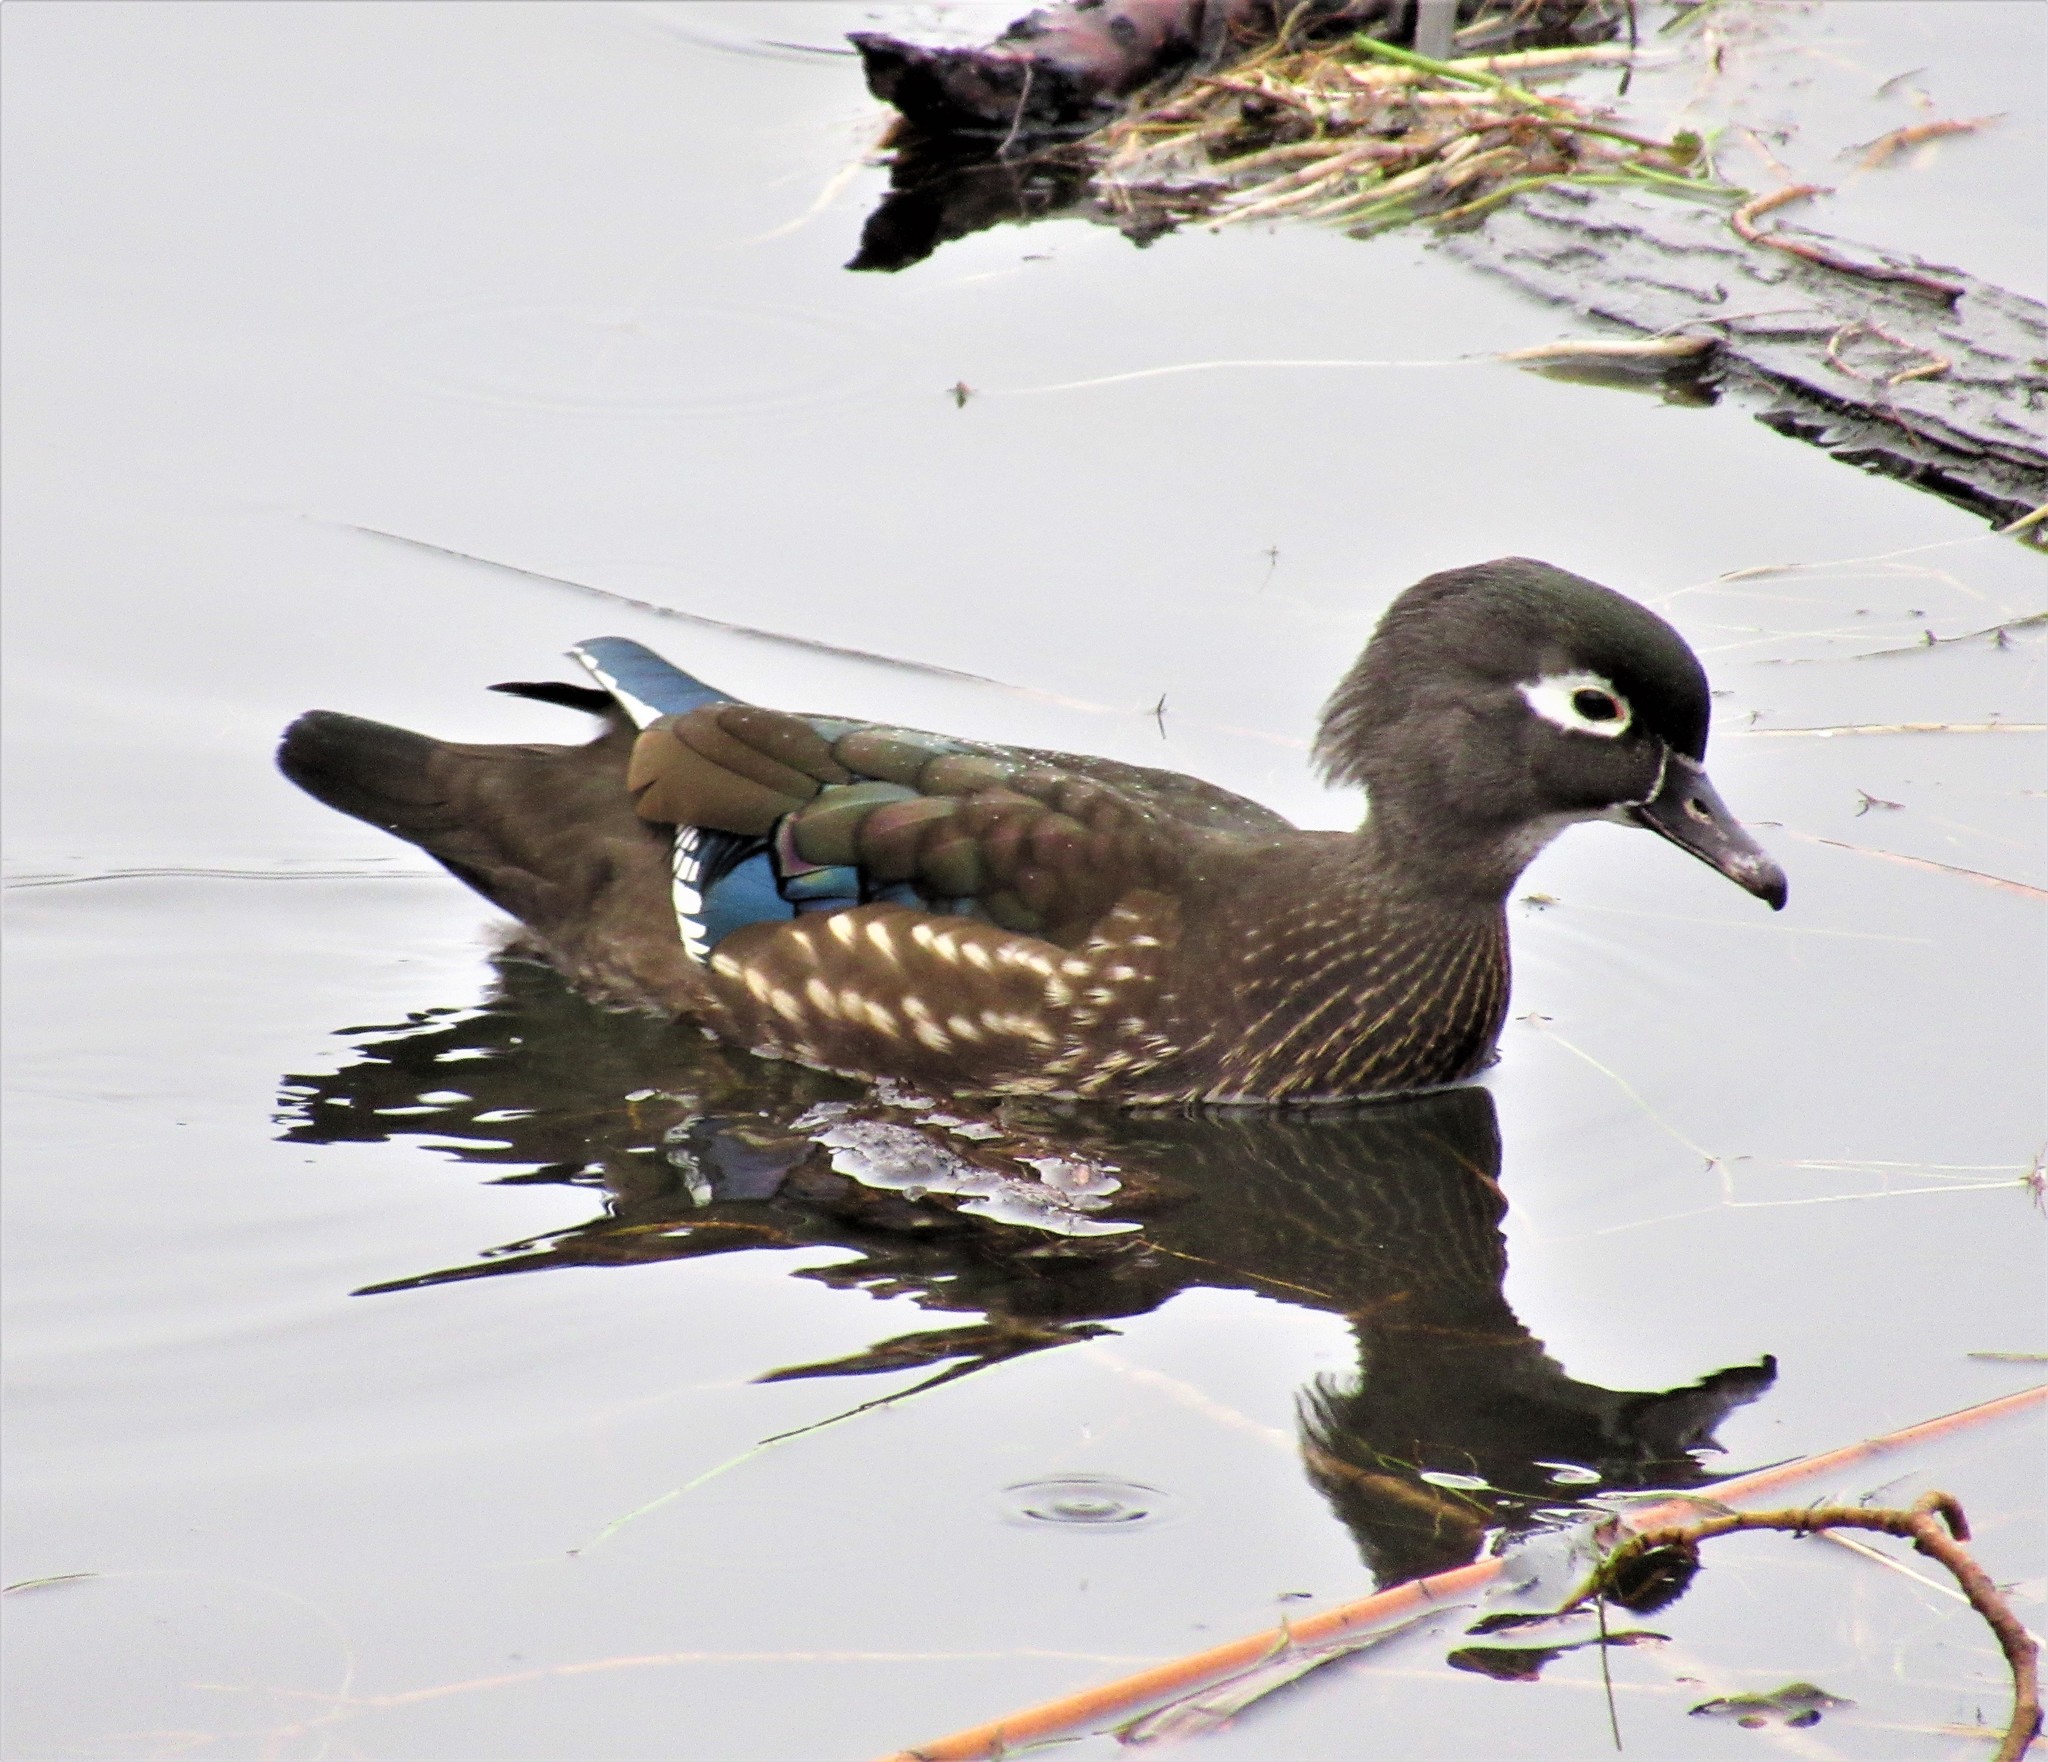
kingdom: Animalia
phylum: Chordata
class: Aves
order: Anseriformes
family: Anatidae
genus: Aix
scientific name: Aix sponsa
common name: Wood duck
